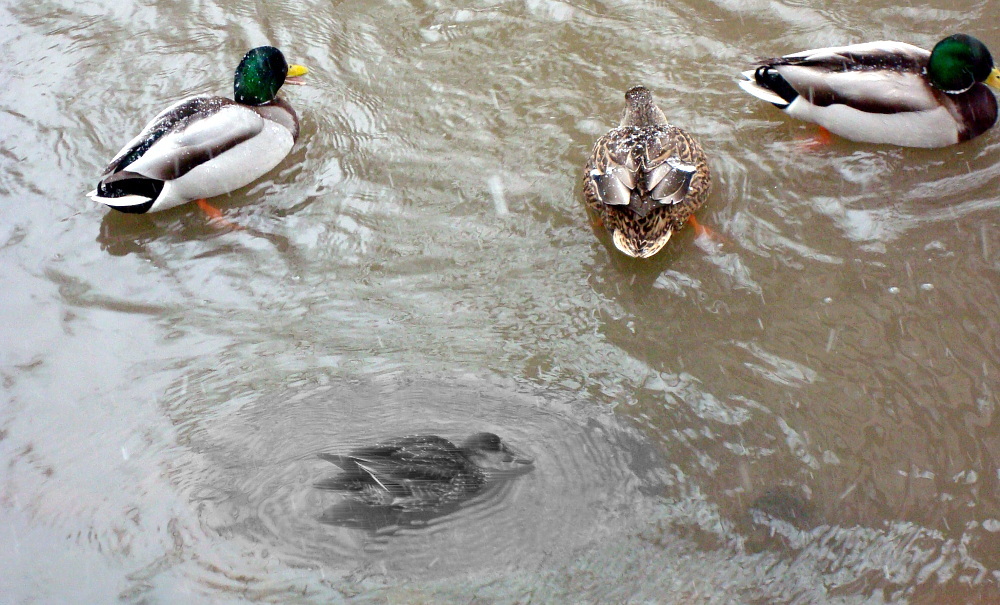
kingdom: Animalia
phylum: Chordata
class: Aves
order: Anseriformes
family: Anatidae
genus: Anas
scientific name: Anas platyrhynchos
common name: Mallard
